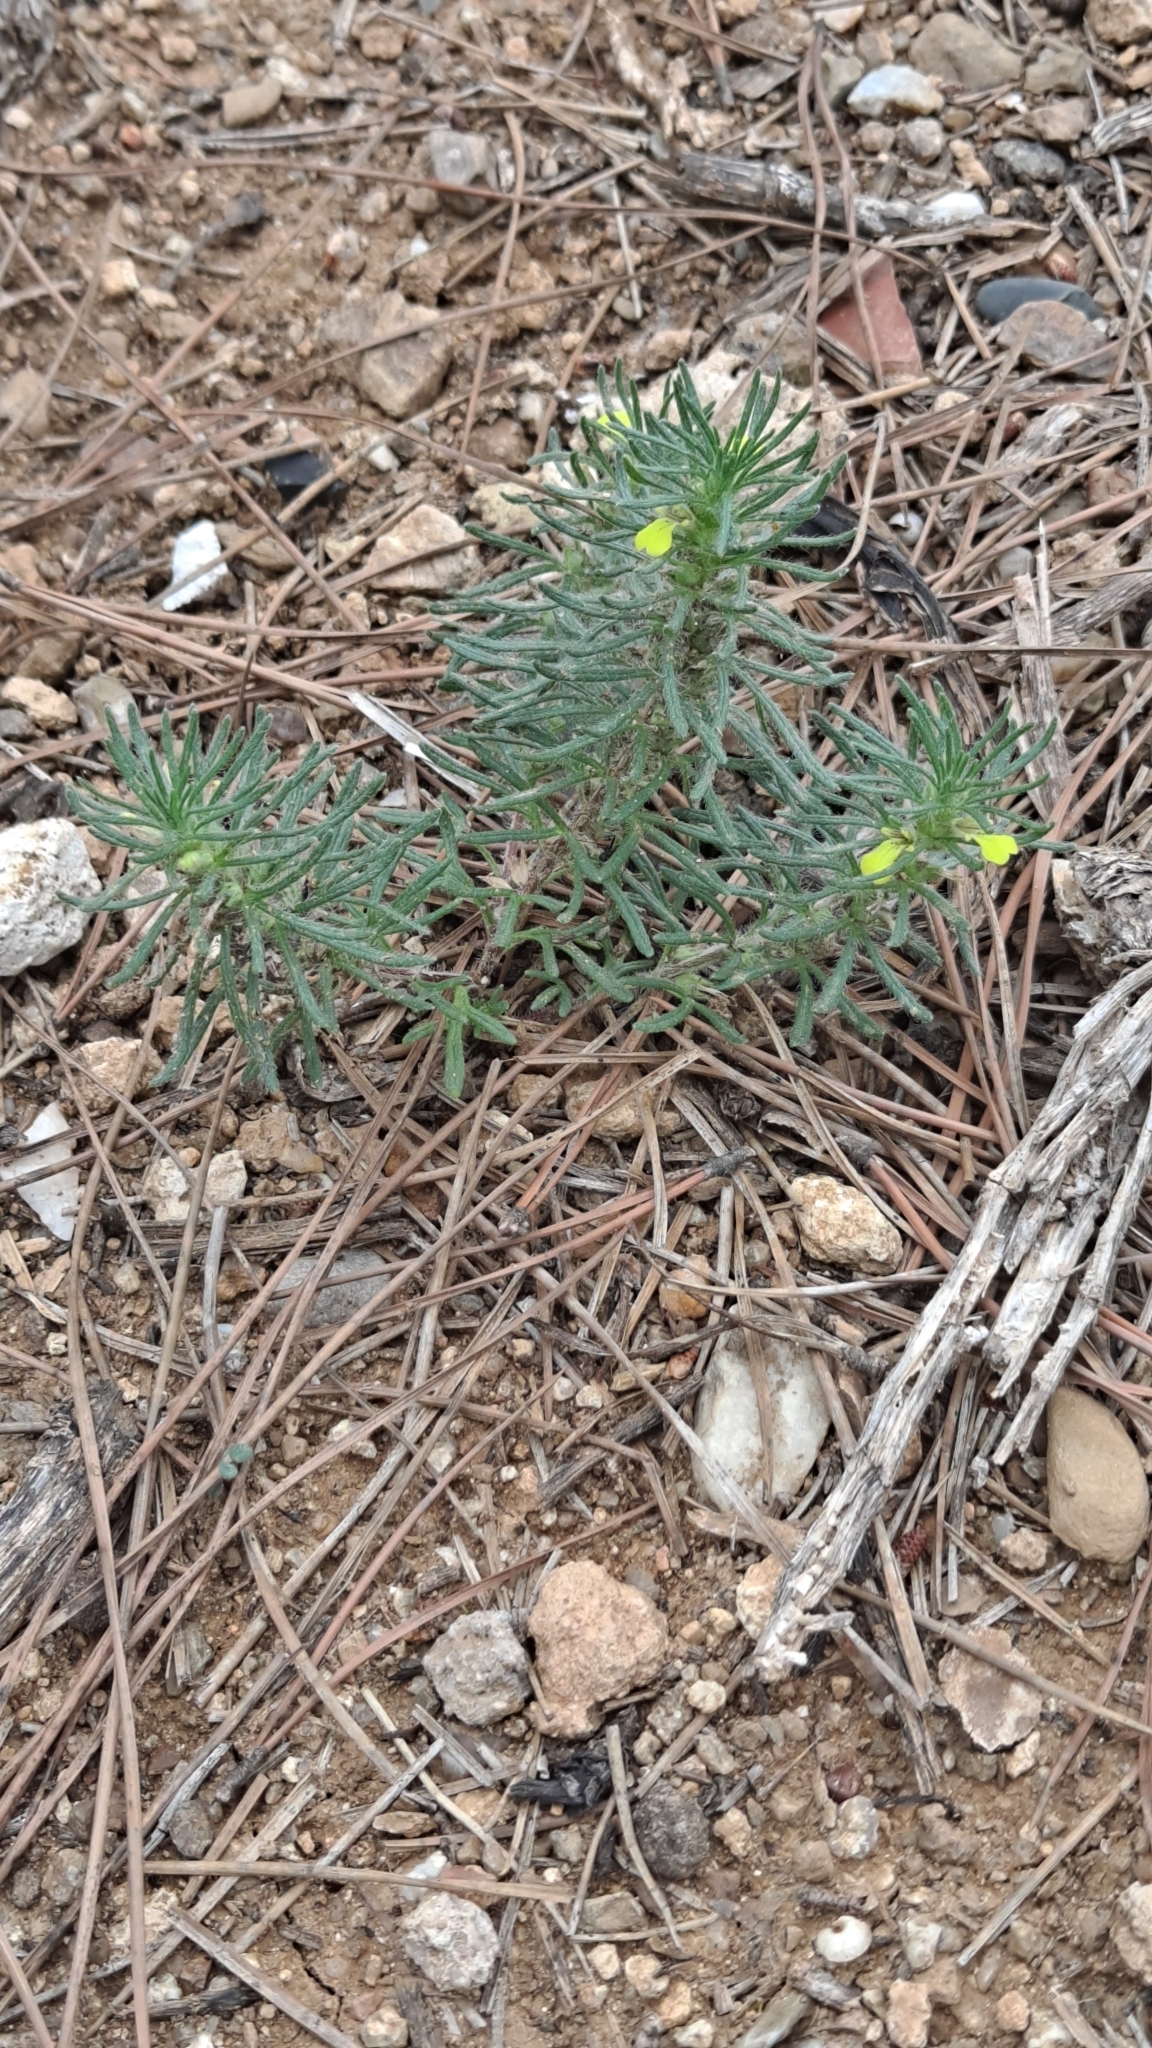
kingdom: Plantae
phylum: Tracheophyta
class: Magnoliopsida
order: Lamiales
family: Lamiaceae
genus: Ajuga
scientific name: Ajuga chamaepitys
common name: Ground-pine
